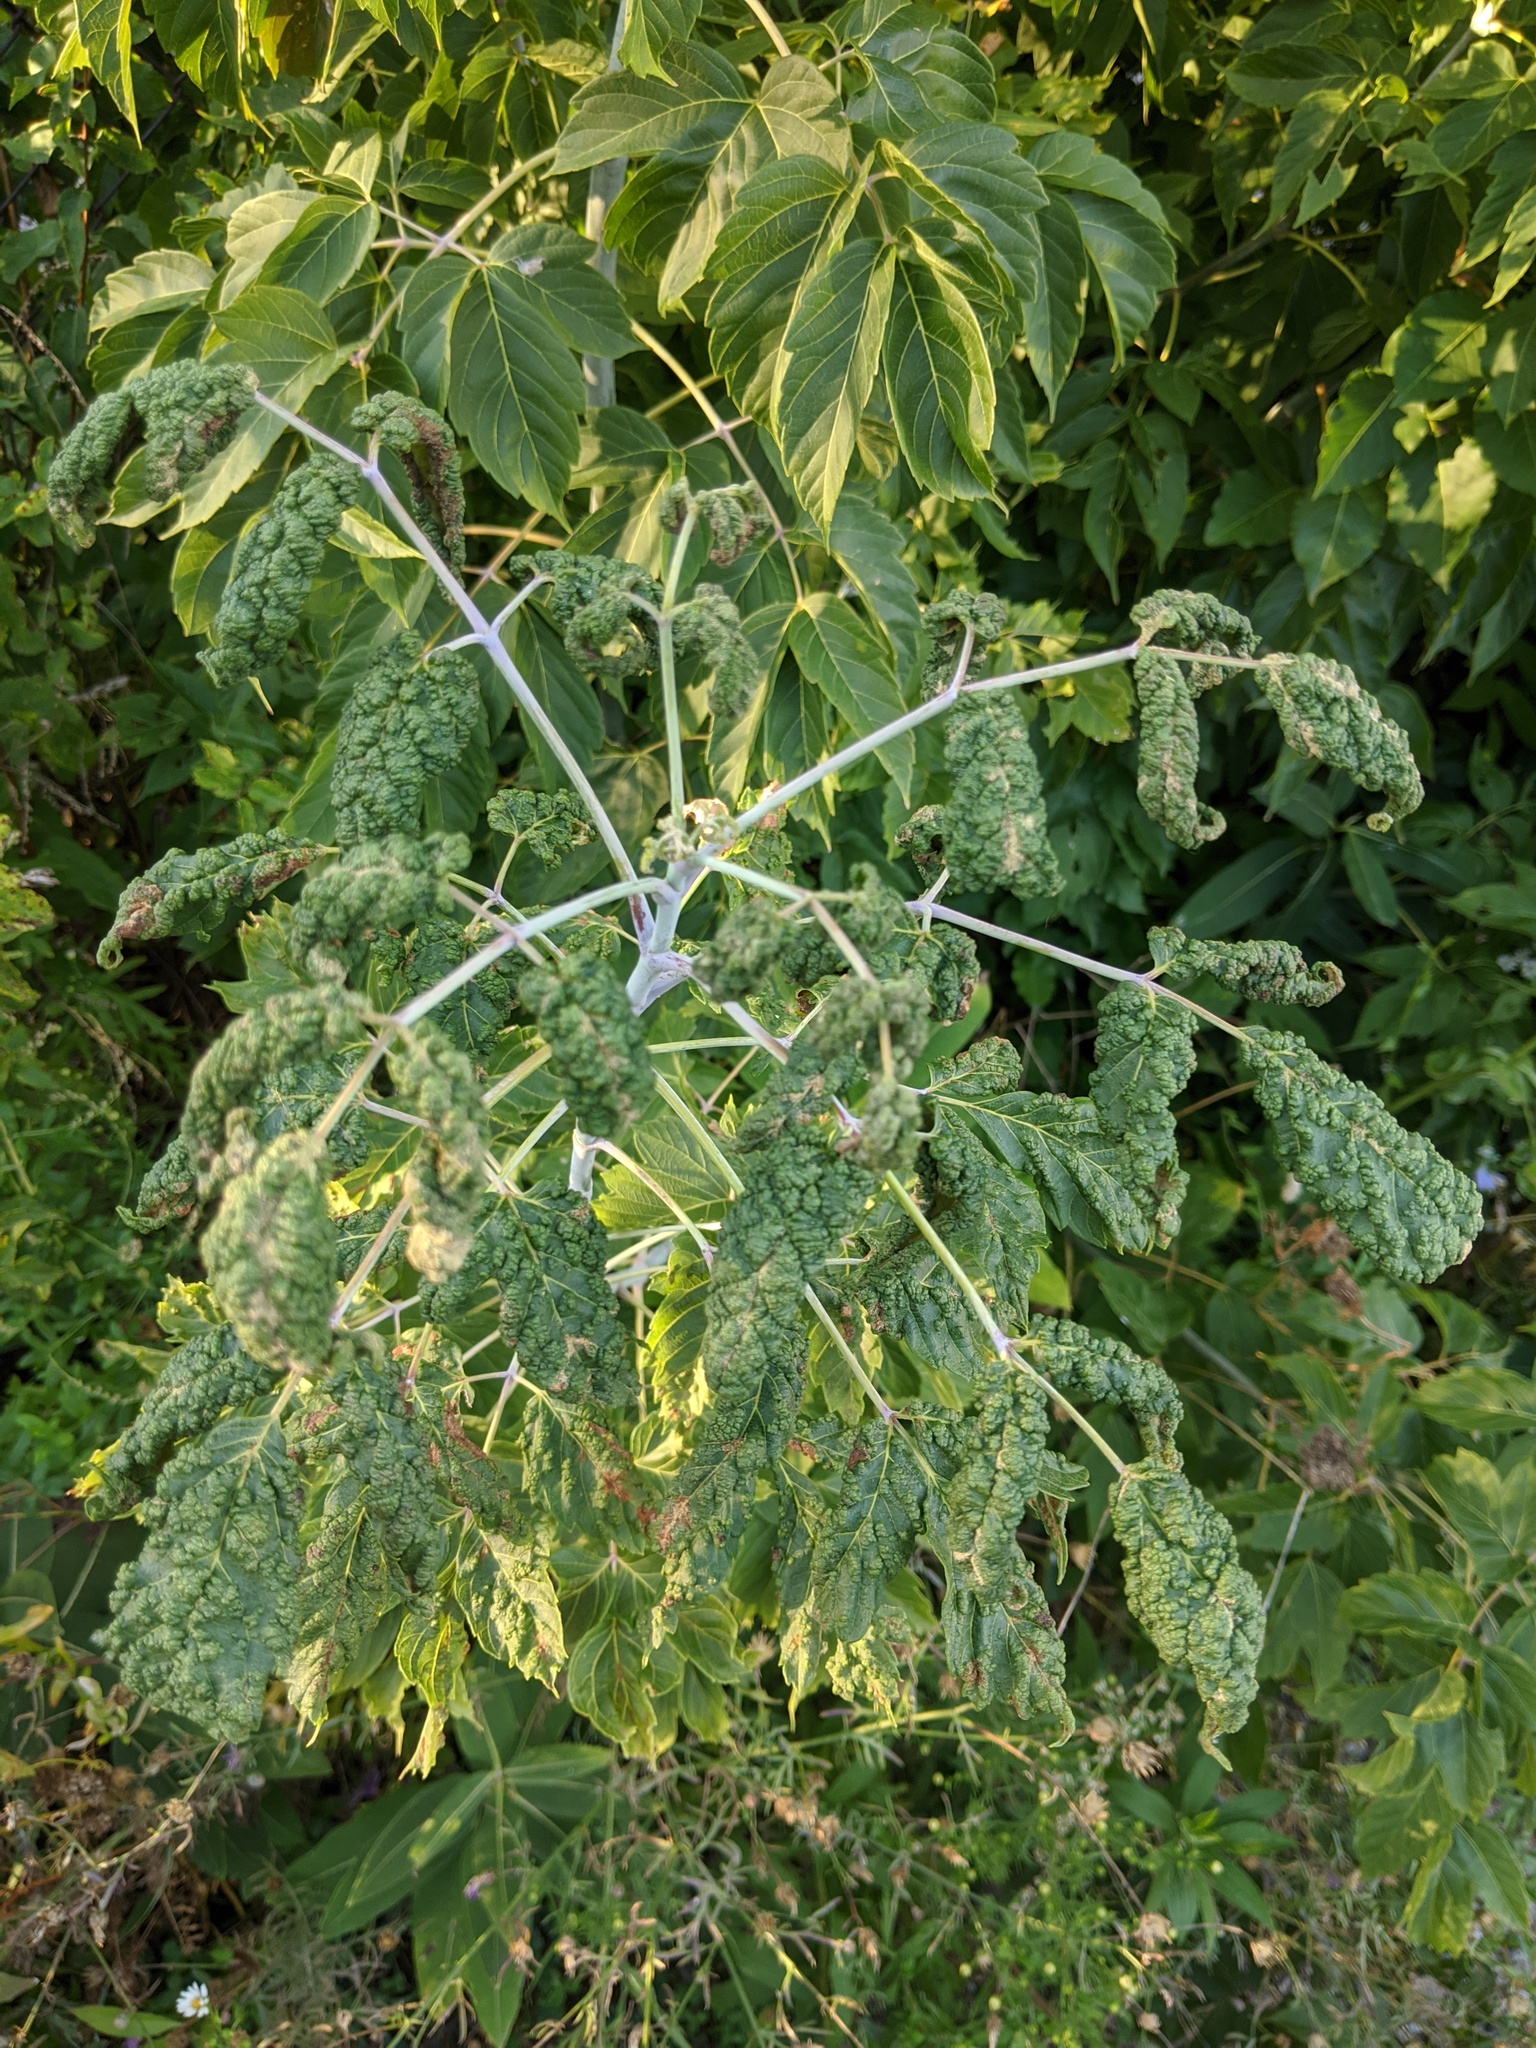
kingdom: Animalia
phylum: Arthropoda
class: Arachnida
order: Trombidiformes
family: Eriophyidae
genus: Aceria
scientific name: Aceria
